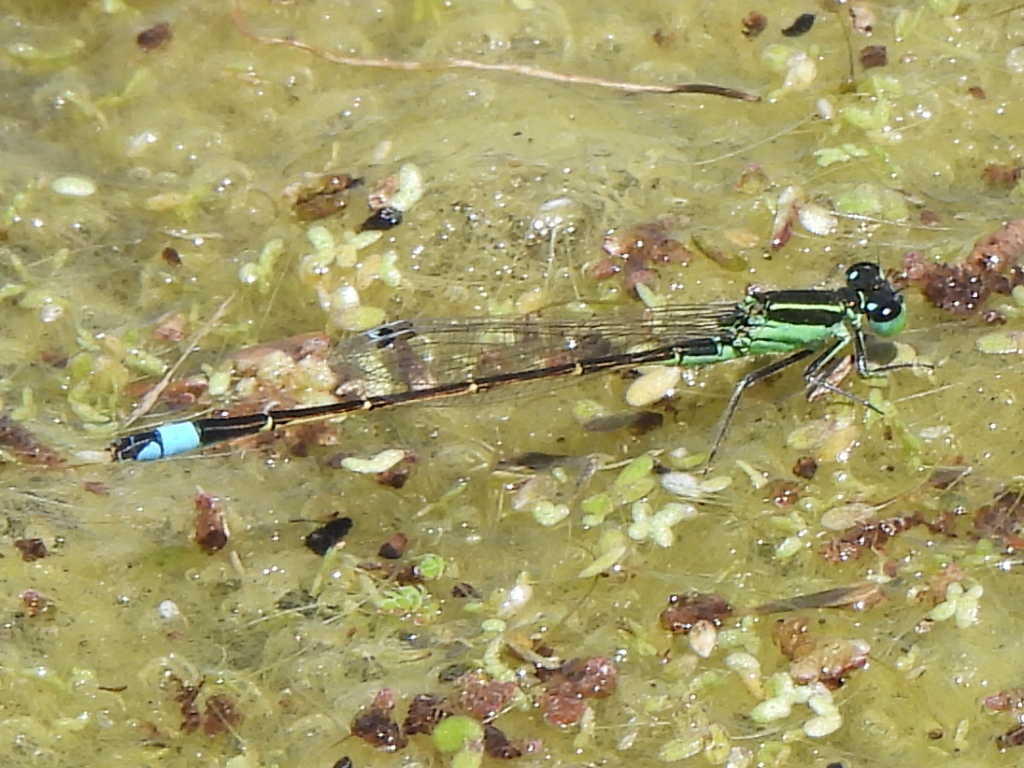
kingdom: Animalia
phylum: Arthropoda
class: Insecta
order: Odonata
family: Coenagrionidae
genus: Ischnura
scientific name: Ischnura ramburii
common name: Rambur's forktail
